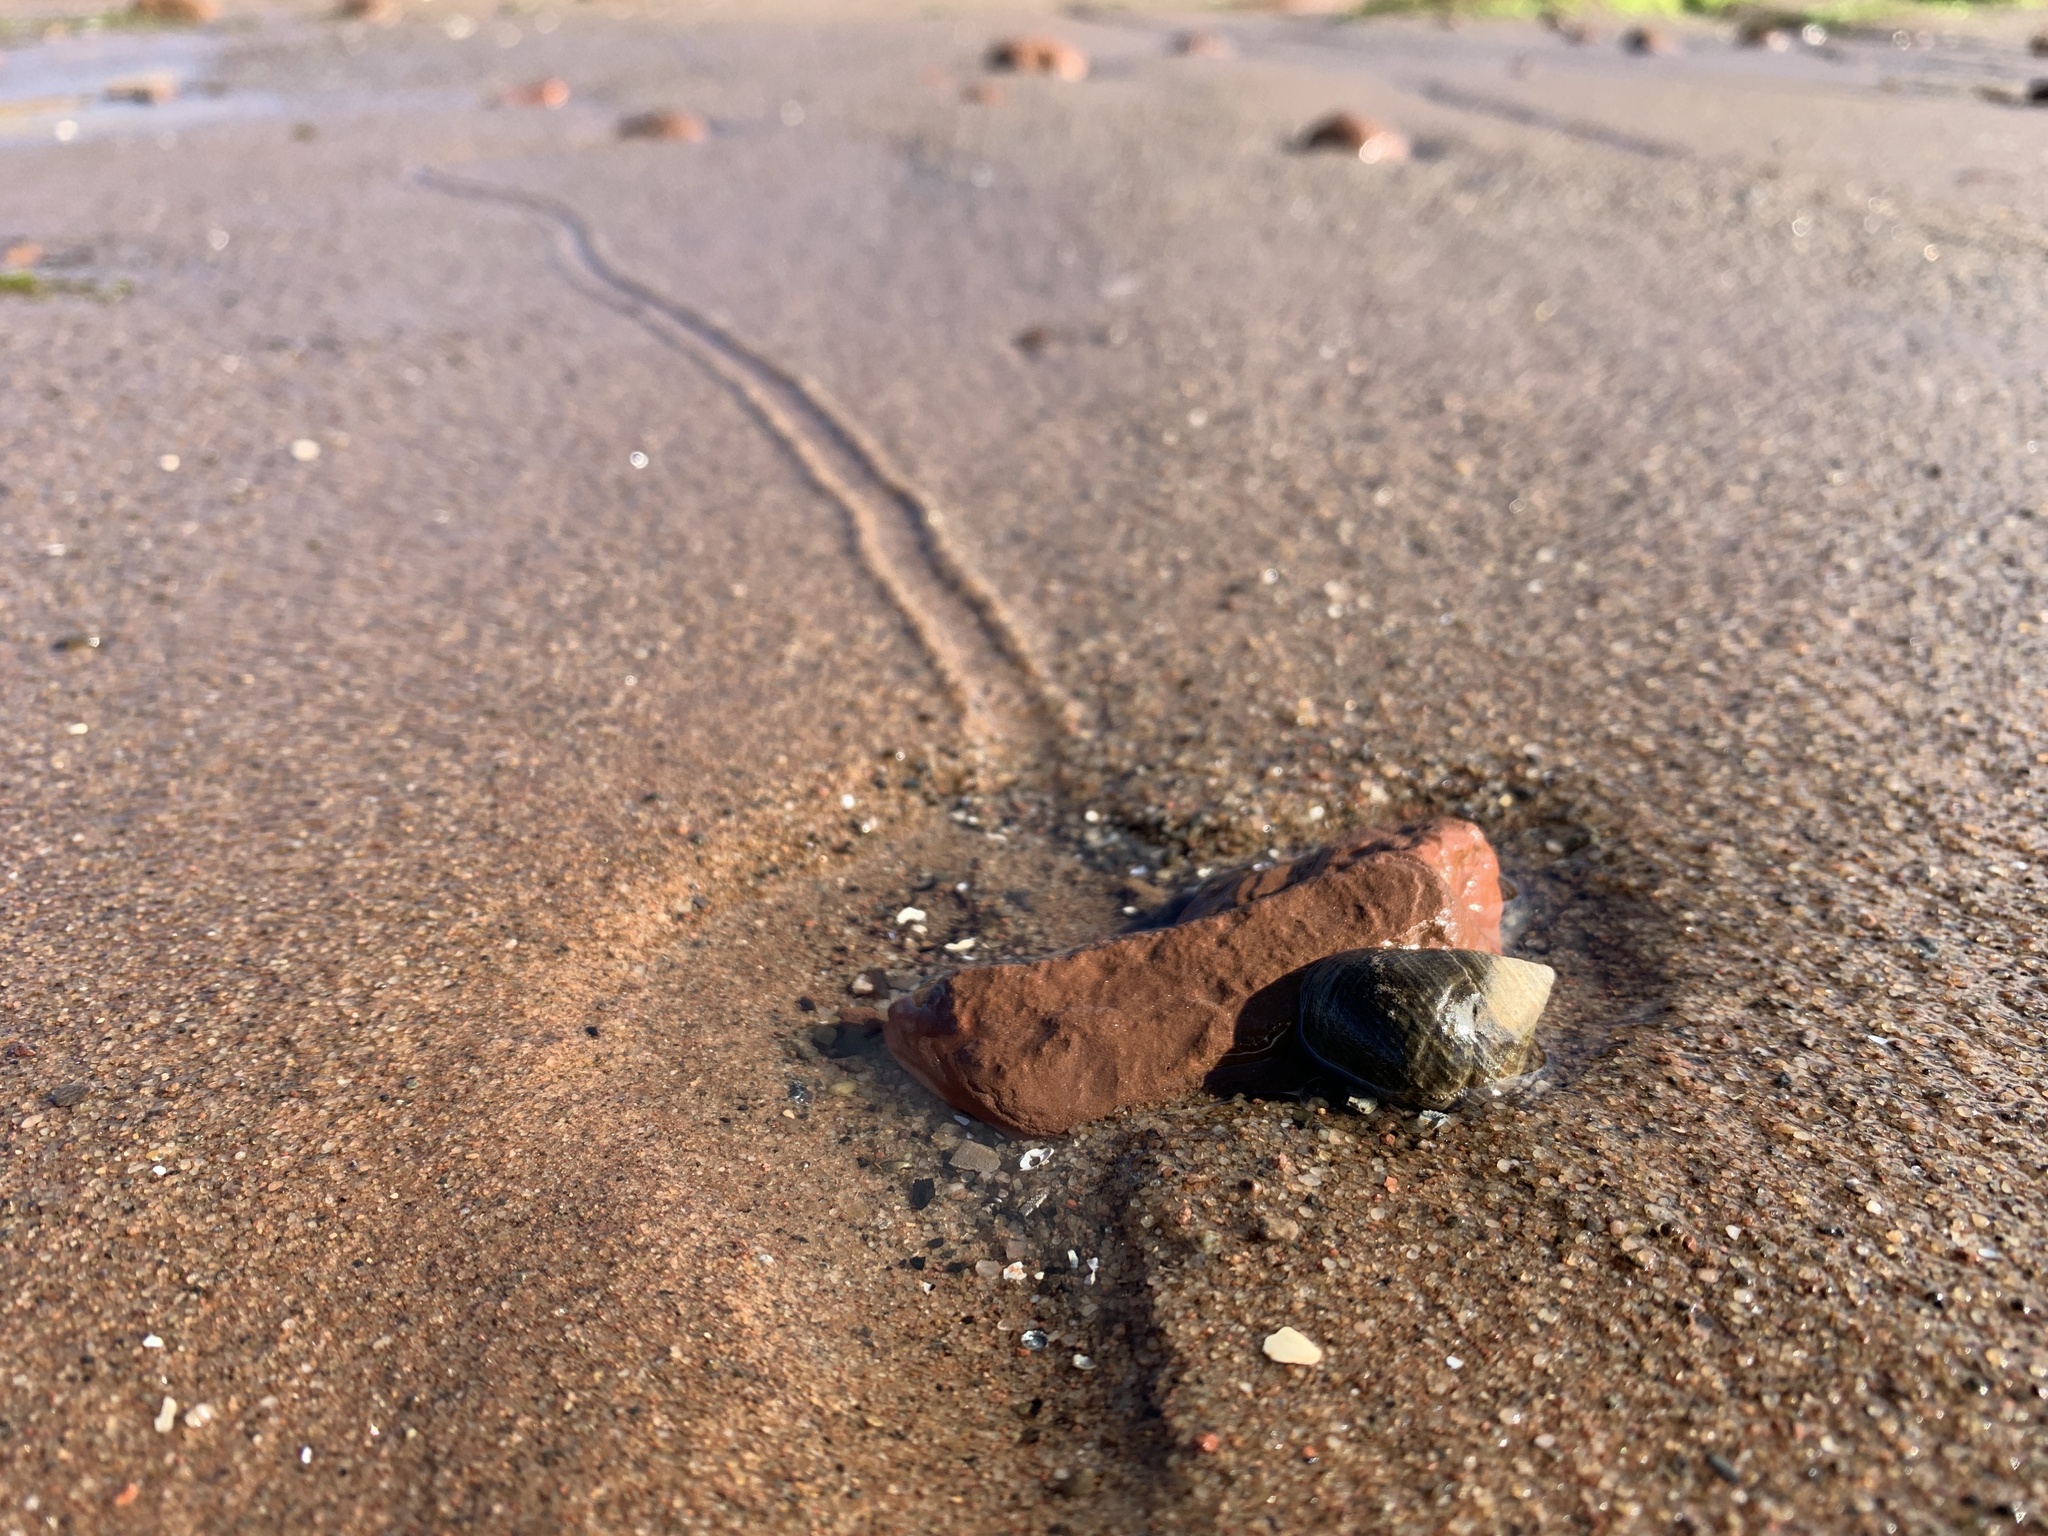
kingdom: Animalia
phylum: Mollusca
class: Gastropoda
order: Littorinimorpha
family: Littorinidae
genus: Littorina
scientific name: Littorina littorea
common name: Common periwinkle
